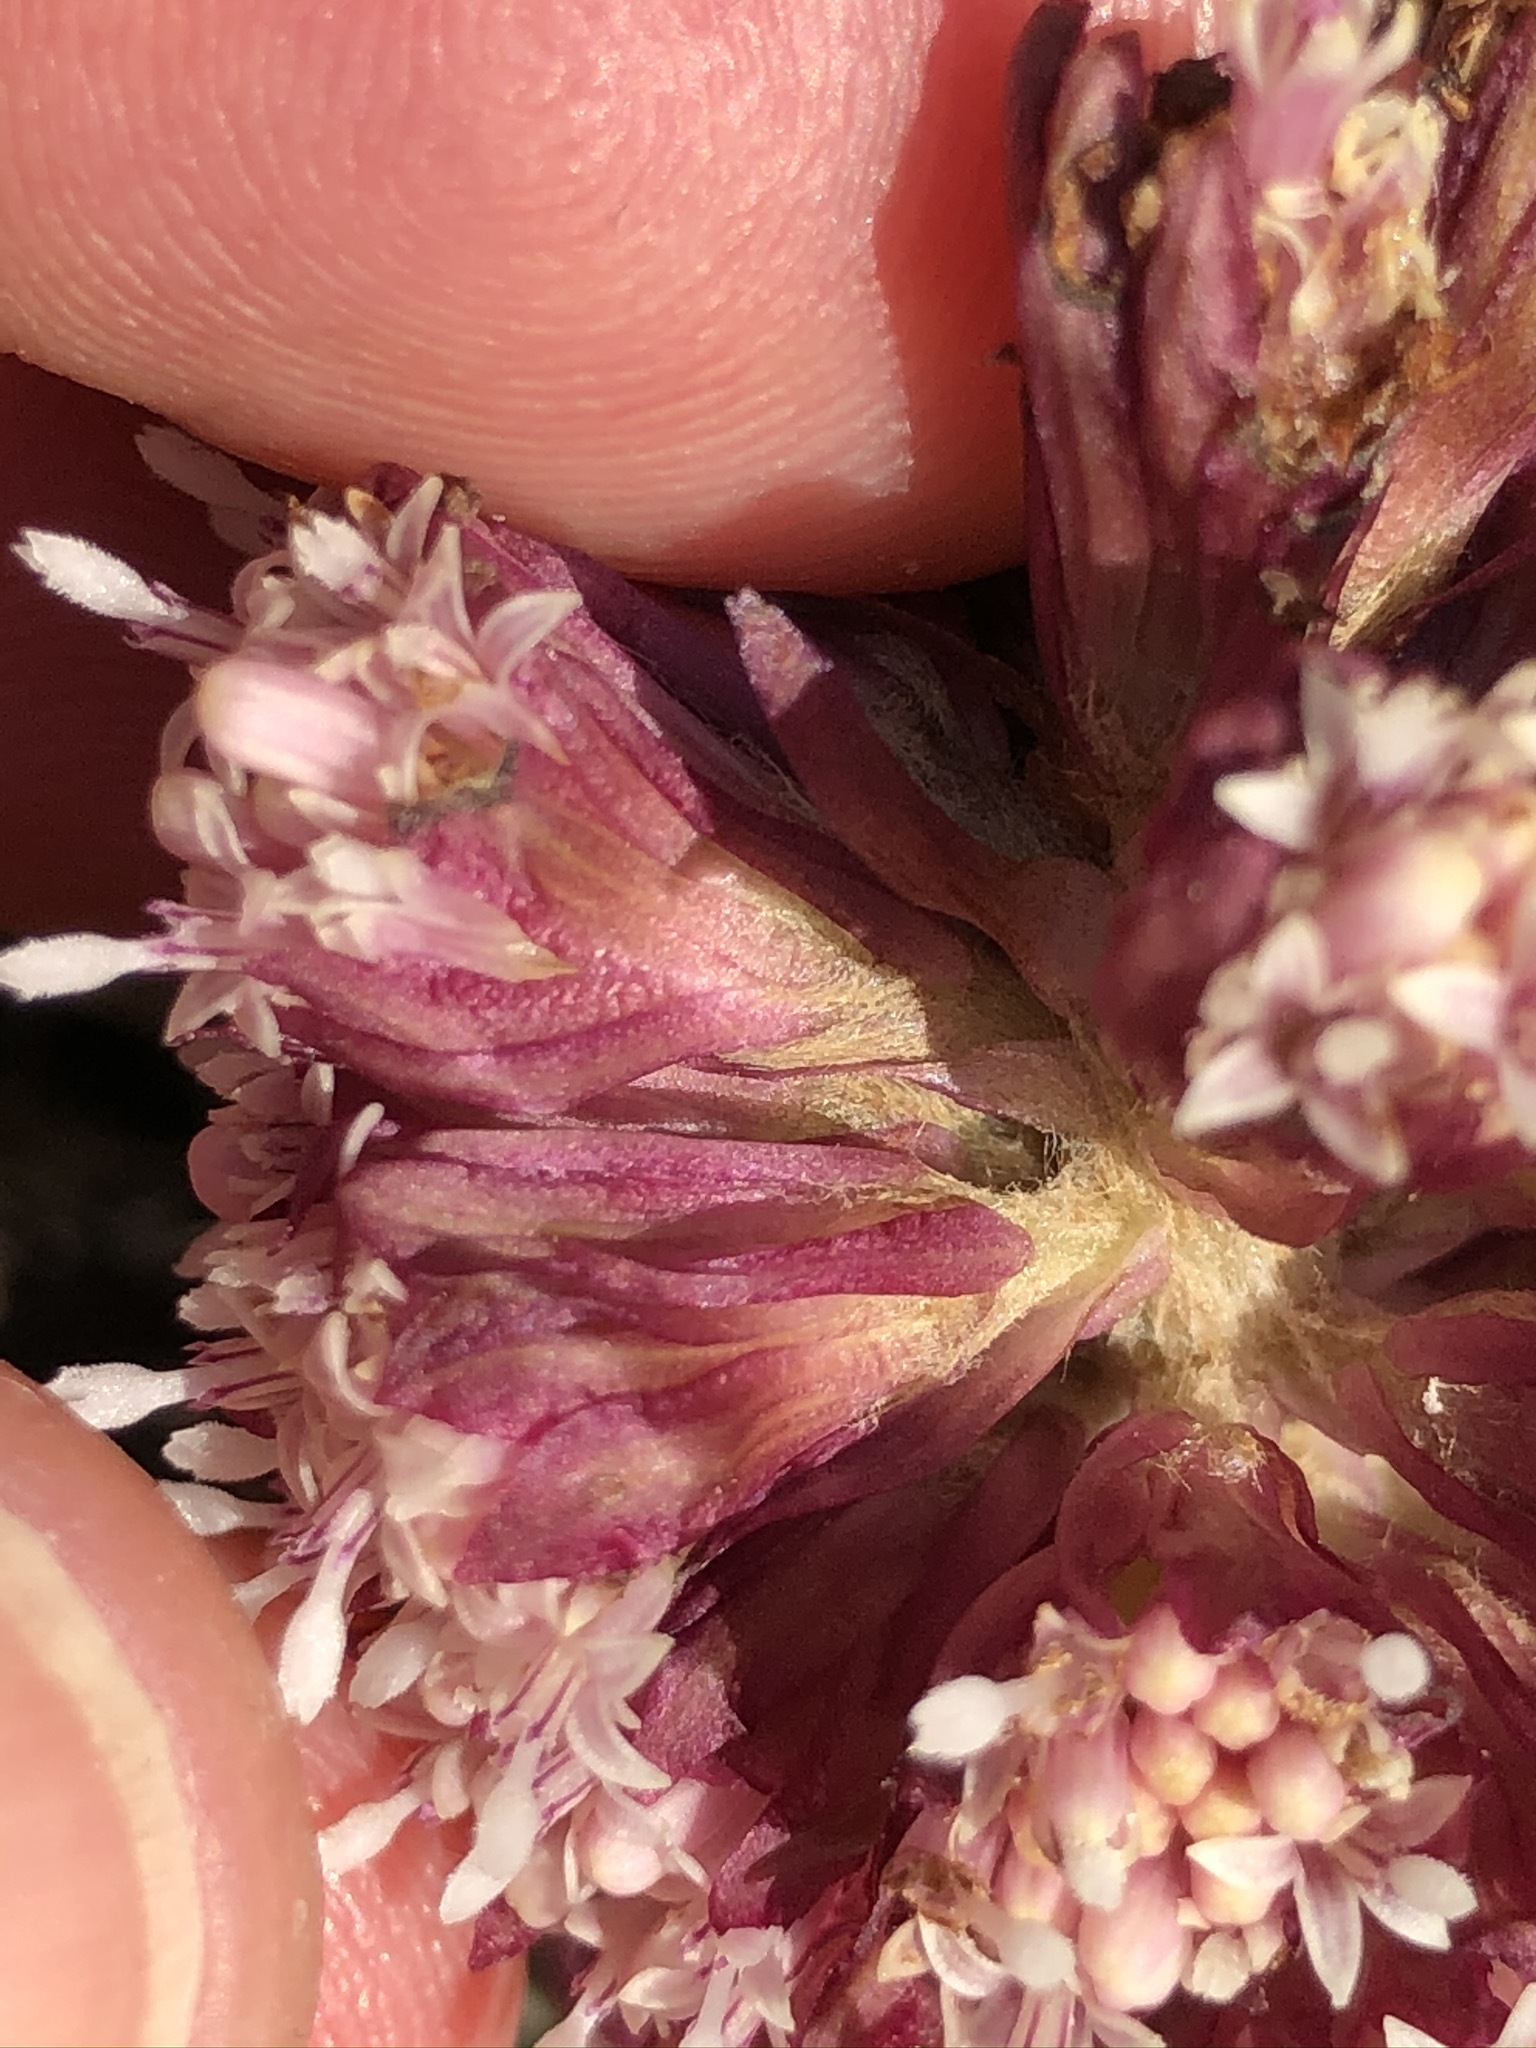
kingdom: Plantae
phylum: Tracheophyta
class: Magnoliopsida
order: Asterales
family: Asteraceae
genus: Petasites
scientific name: Petasites hybridus
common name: Butterbur
